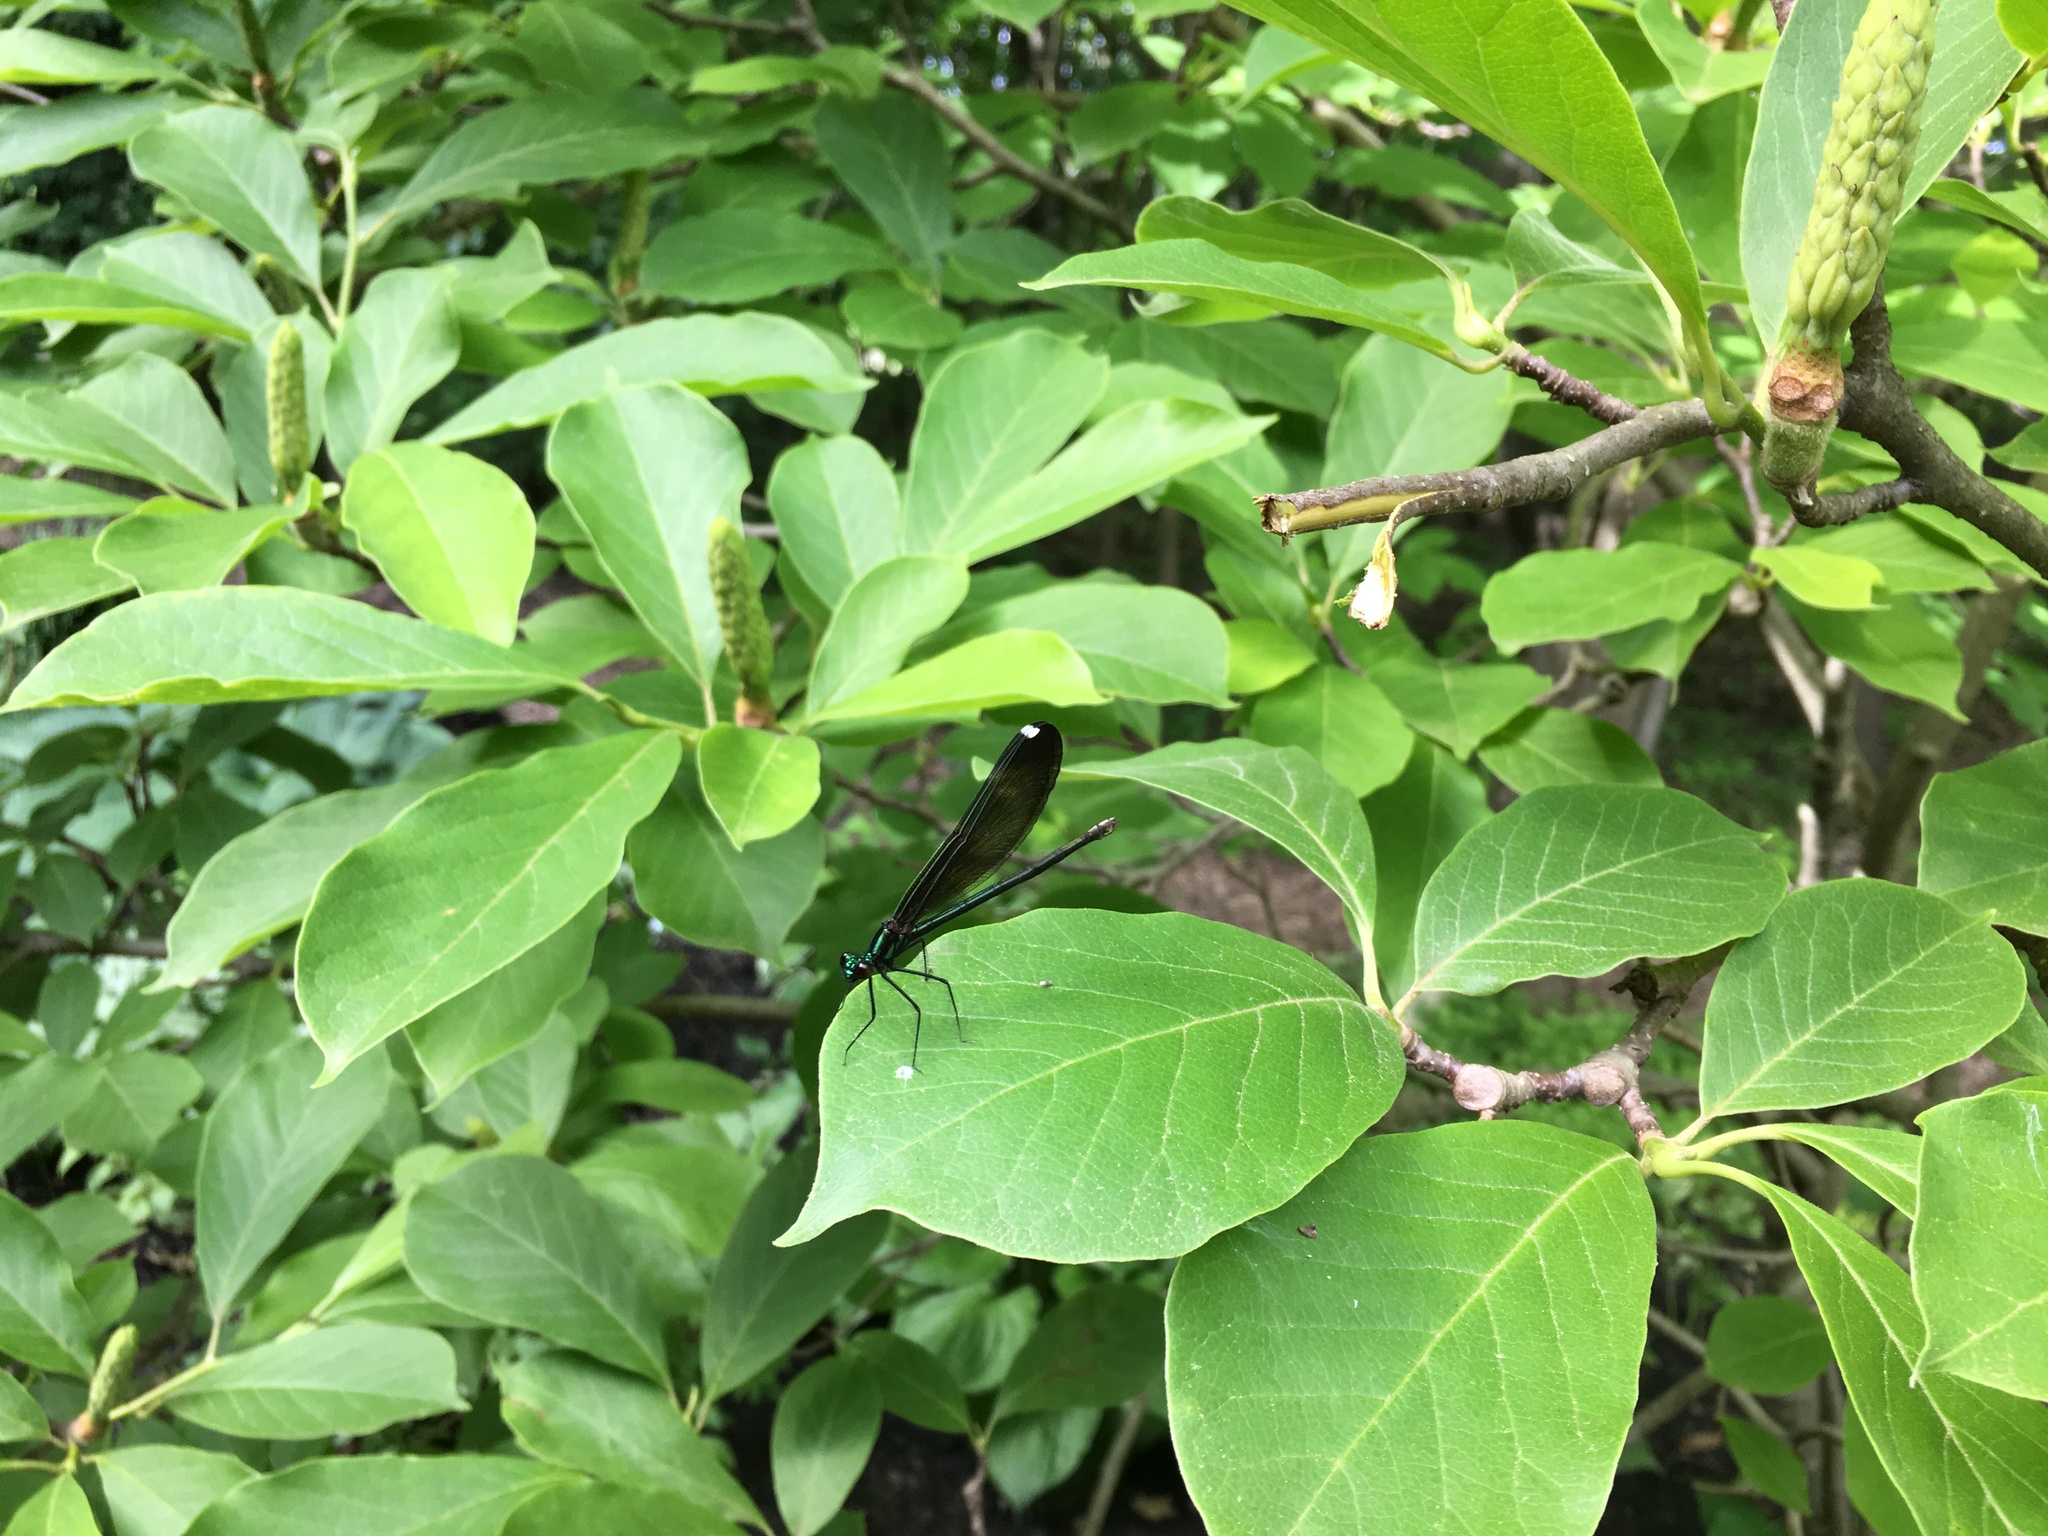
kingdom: Animalia
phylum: Arthropoda
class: Insecta
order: Odonata
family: Calopterygidae
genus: Calopteryx
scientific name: Calopteryx maculata
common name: Ebony jewelwing
